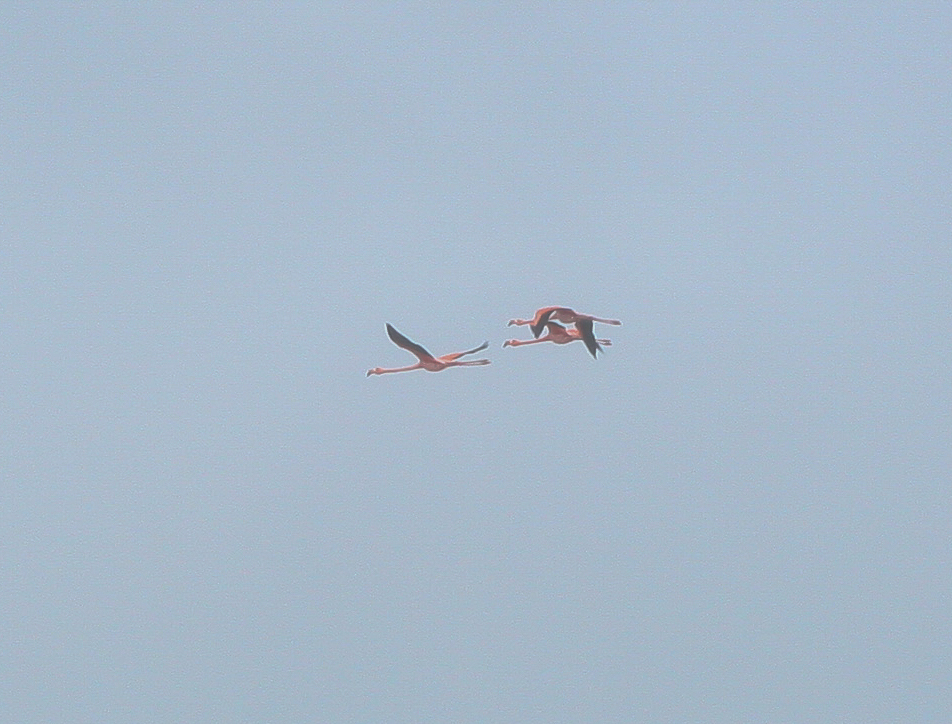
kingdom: Animalia
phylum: Chordata
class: Aves
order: Phoenicopteriformes
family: Phoenicopteridae
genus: Phoenicopterus
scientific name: Phoenicopterus ruber
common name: American flamingo
